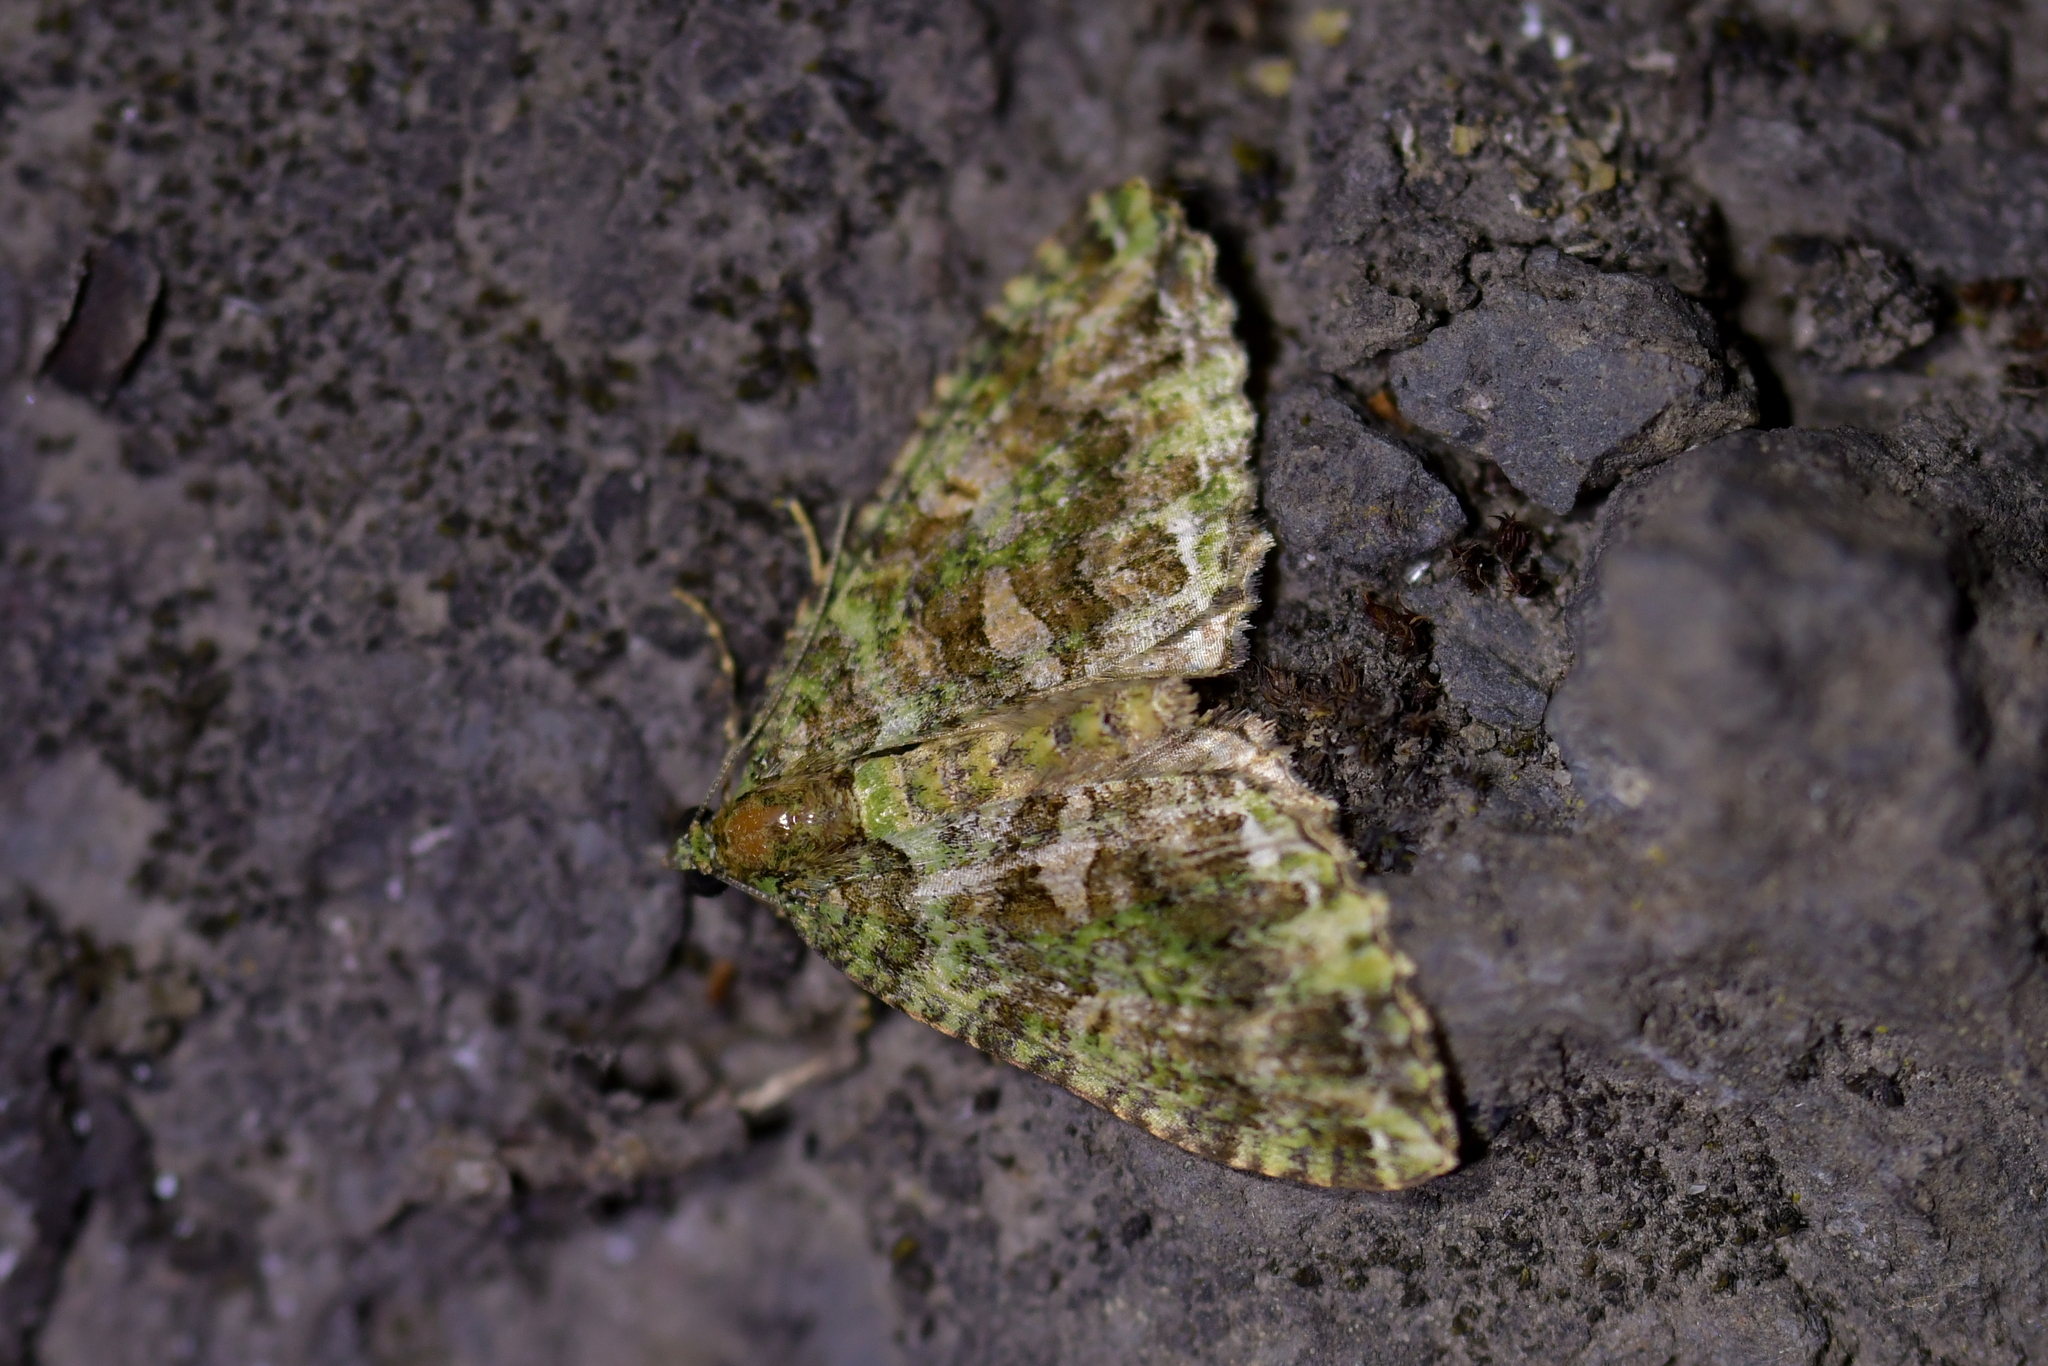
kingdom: Animalia
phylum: Arthropoda
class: Insecta
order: Lepidoptera
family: Geometridae
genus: Austrocidaria
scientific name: Austrocidaria similata
